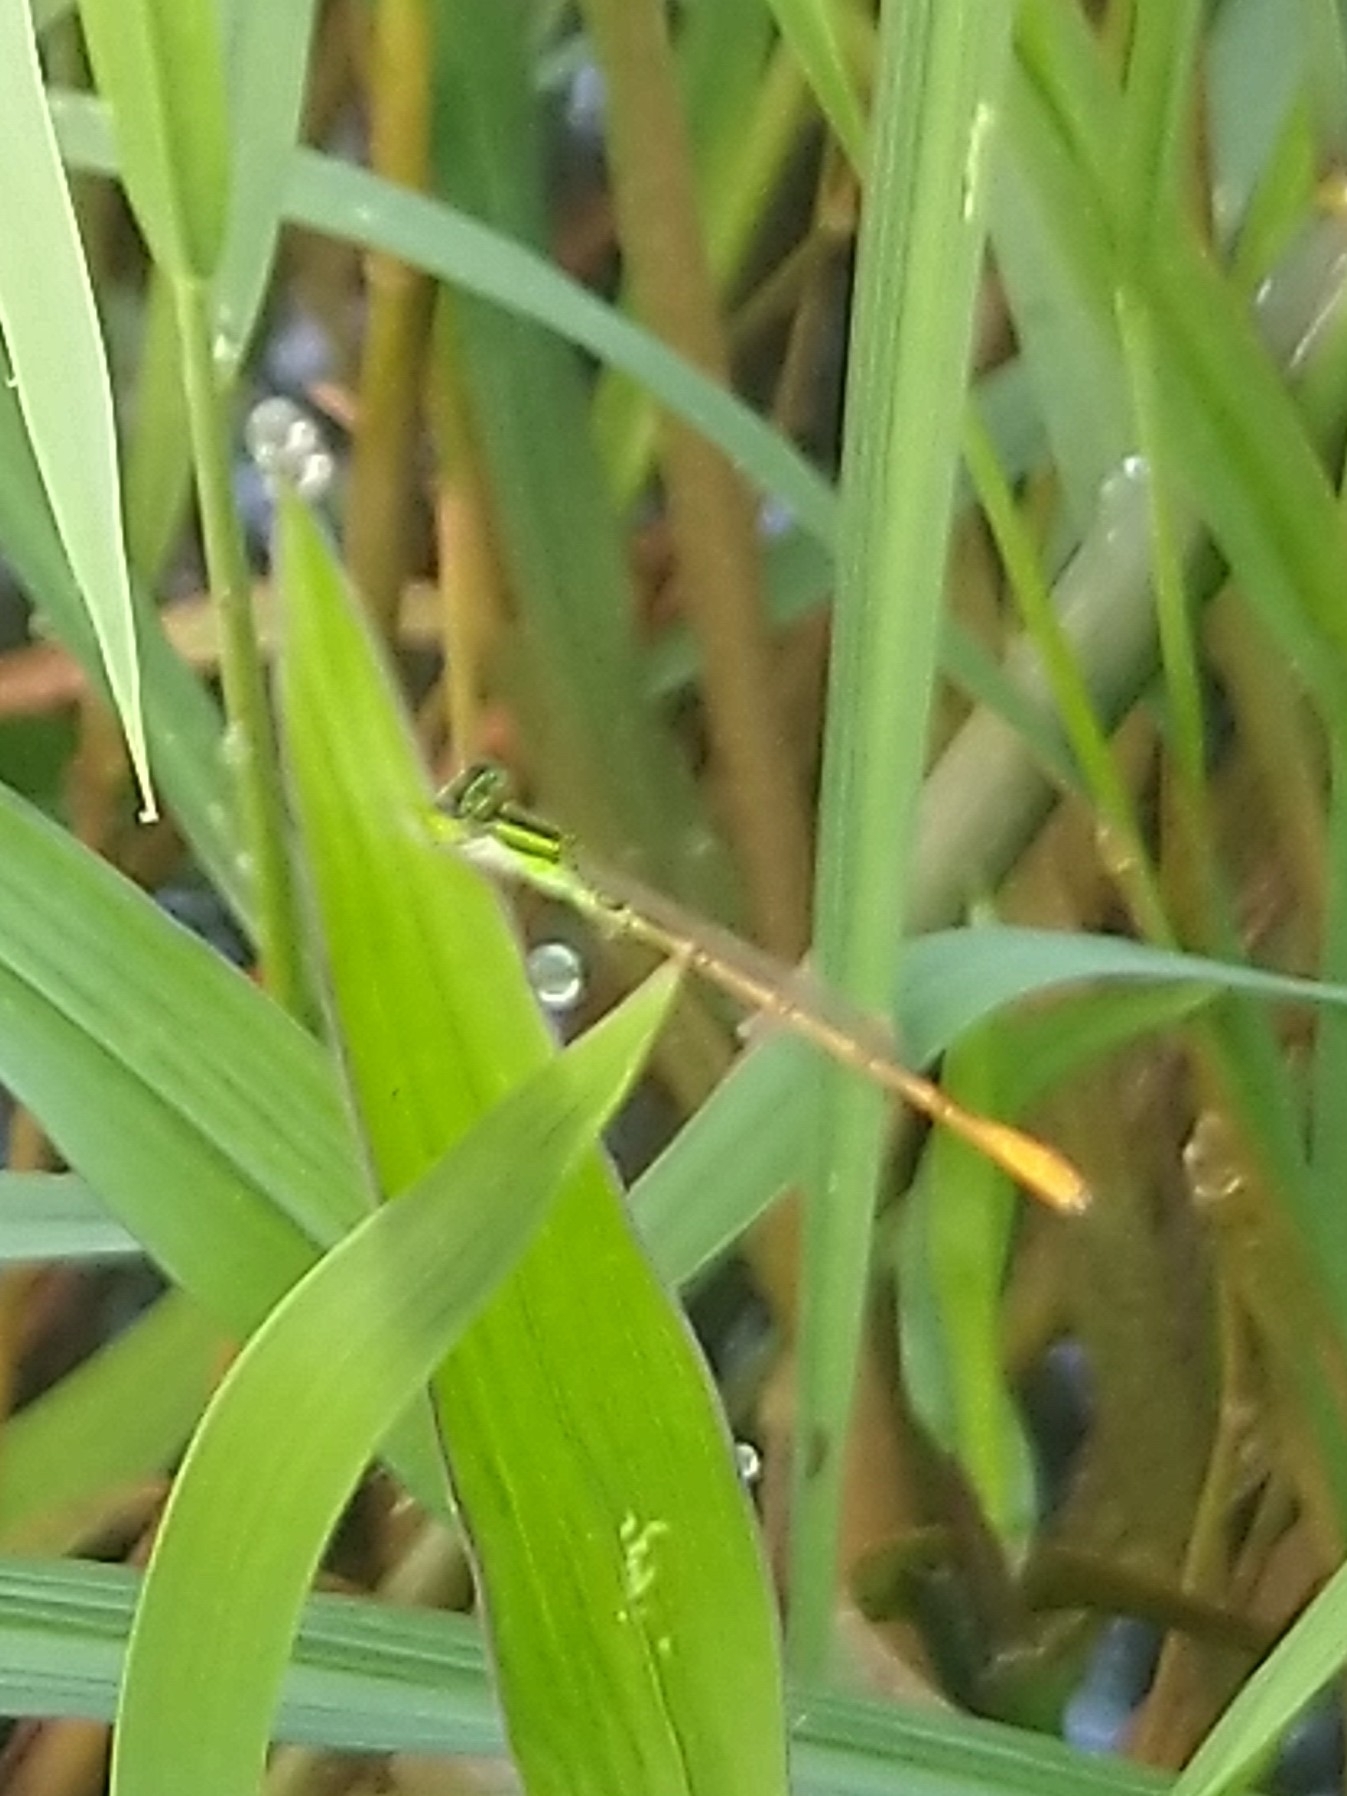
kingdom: Animalia
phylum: Arthropoda
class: Insecta
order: Odonata
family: Coenagrionidae
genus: Agriocnemis
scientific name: Agriocnemis keralensis
